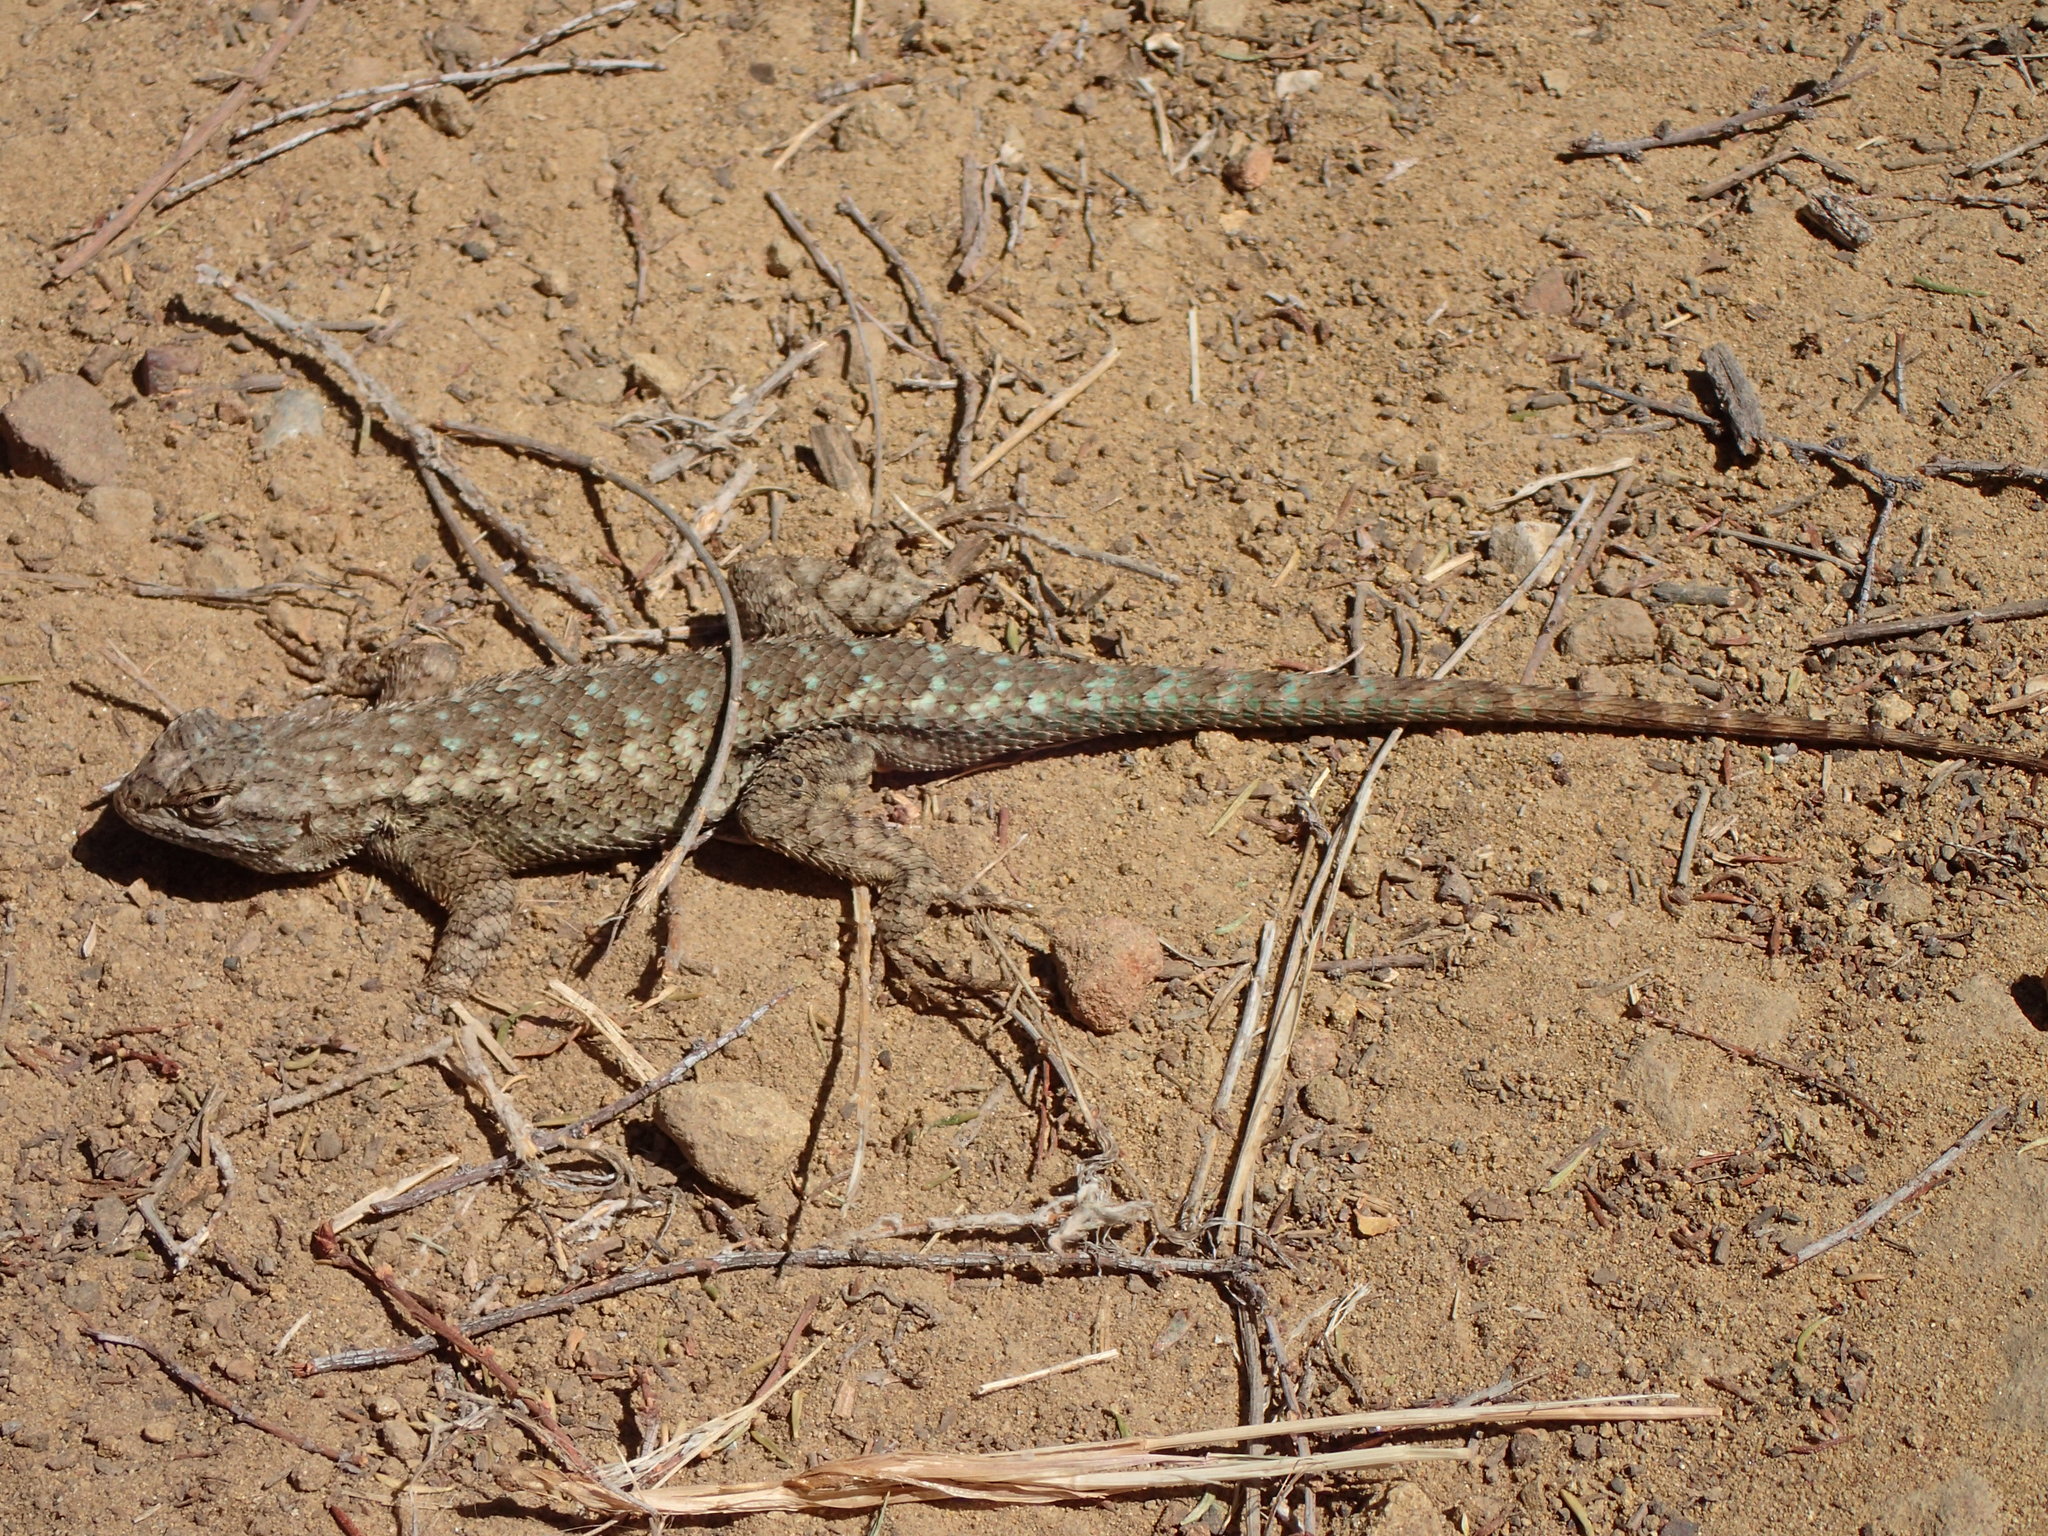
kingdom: Animalia
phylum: Chordata
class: Squamata
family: Phrynosomatidae
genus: Sceloporus
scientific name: Sceloporus occidentalis
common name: Western fence lizard
